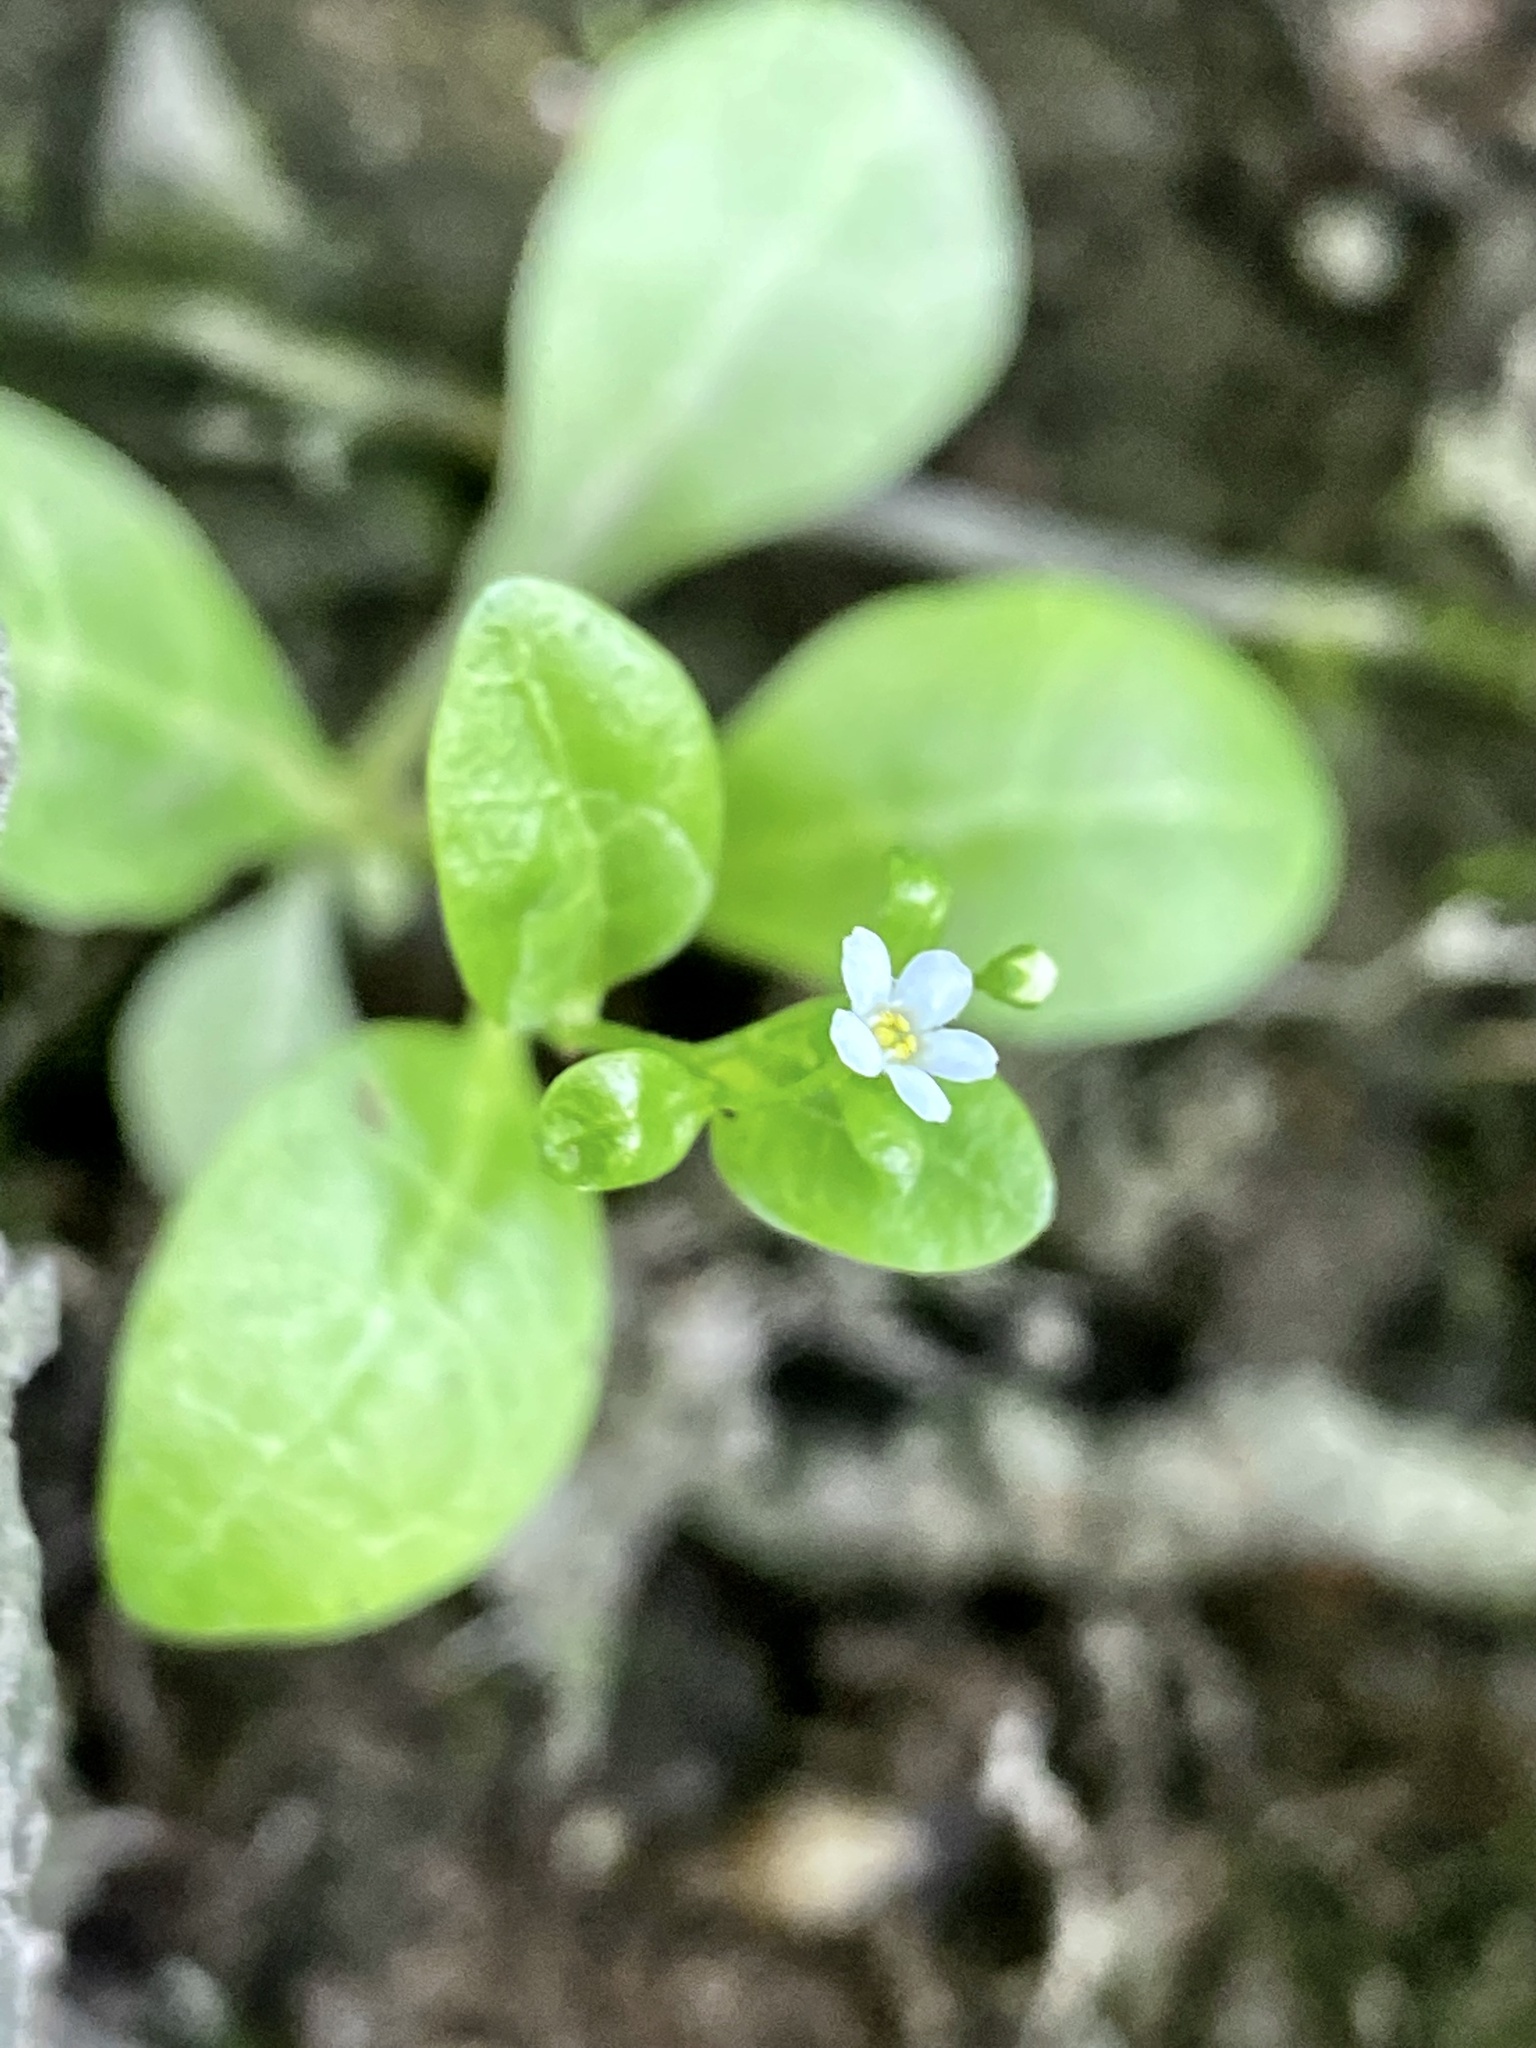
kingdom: Plantae
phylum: Tracheophyta
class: Magnoliopsida
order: Ericales
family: Primulaceae
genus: Samolus
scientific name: Samolus parviflorus
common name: False water pimpernel
